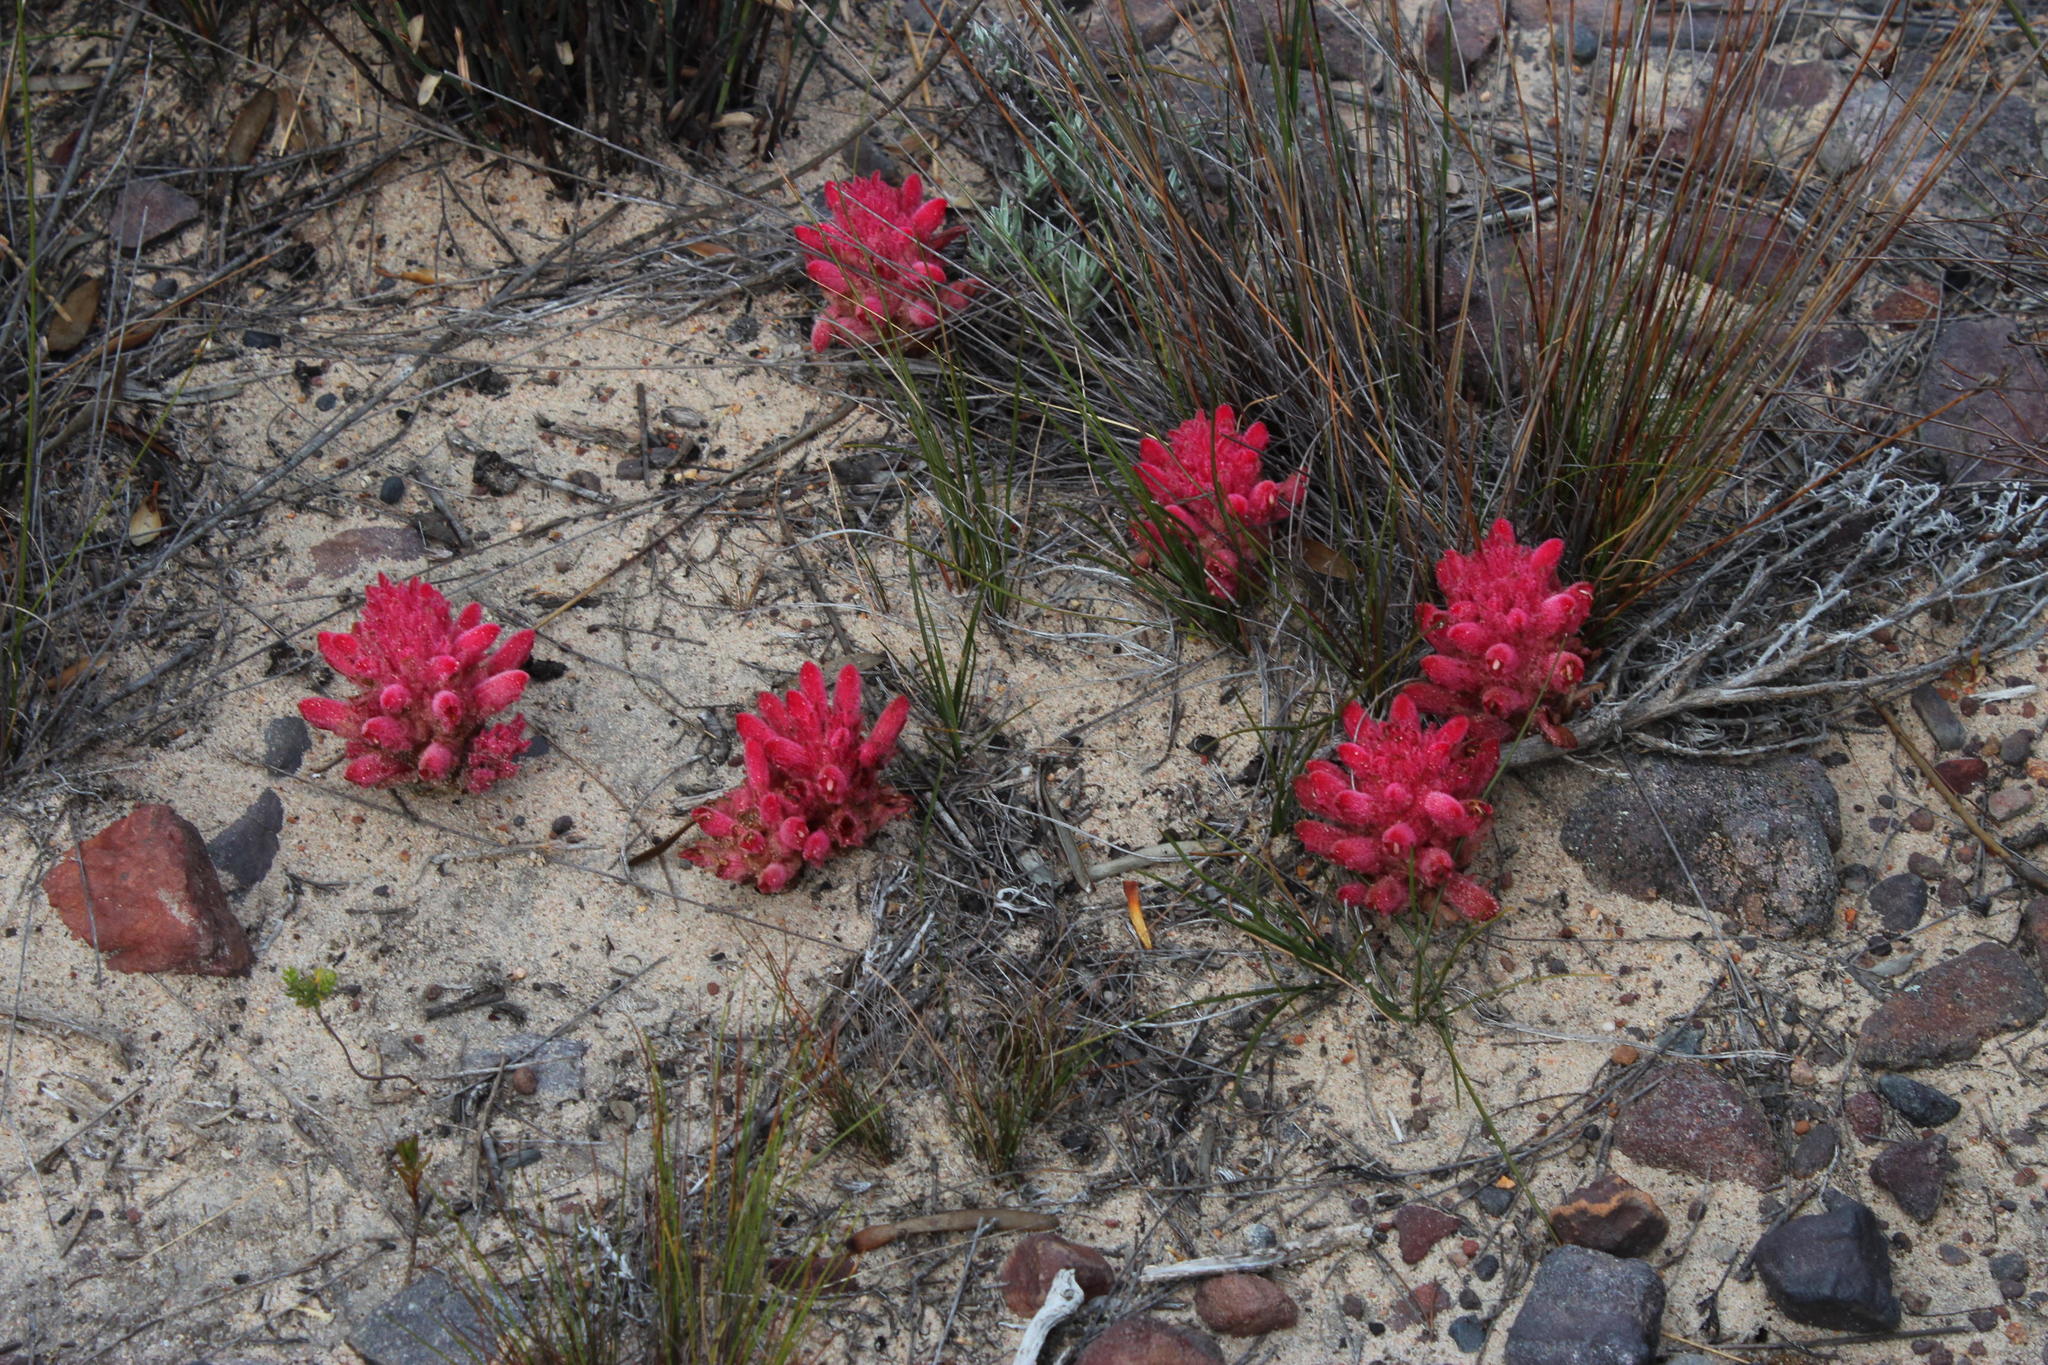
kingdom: Plantae
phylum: Tracheophyta
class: Magnoliopsida
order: Lamiales
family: Orobanchaceae
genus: Hyobanche
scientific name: Hyobanche sanguinea
